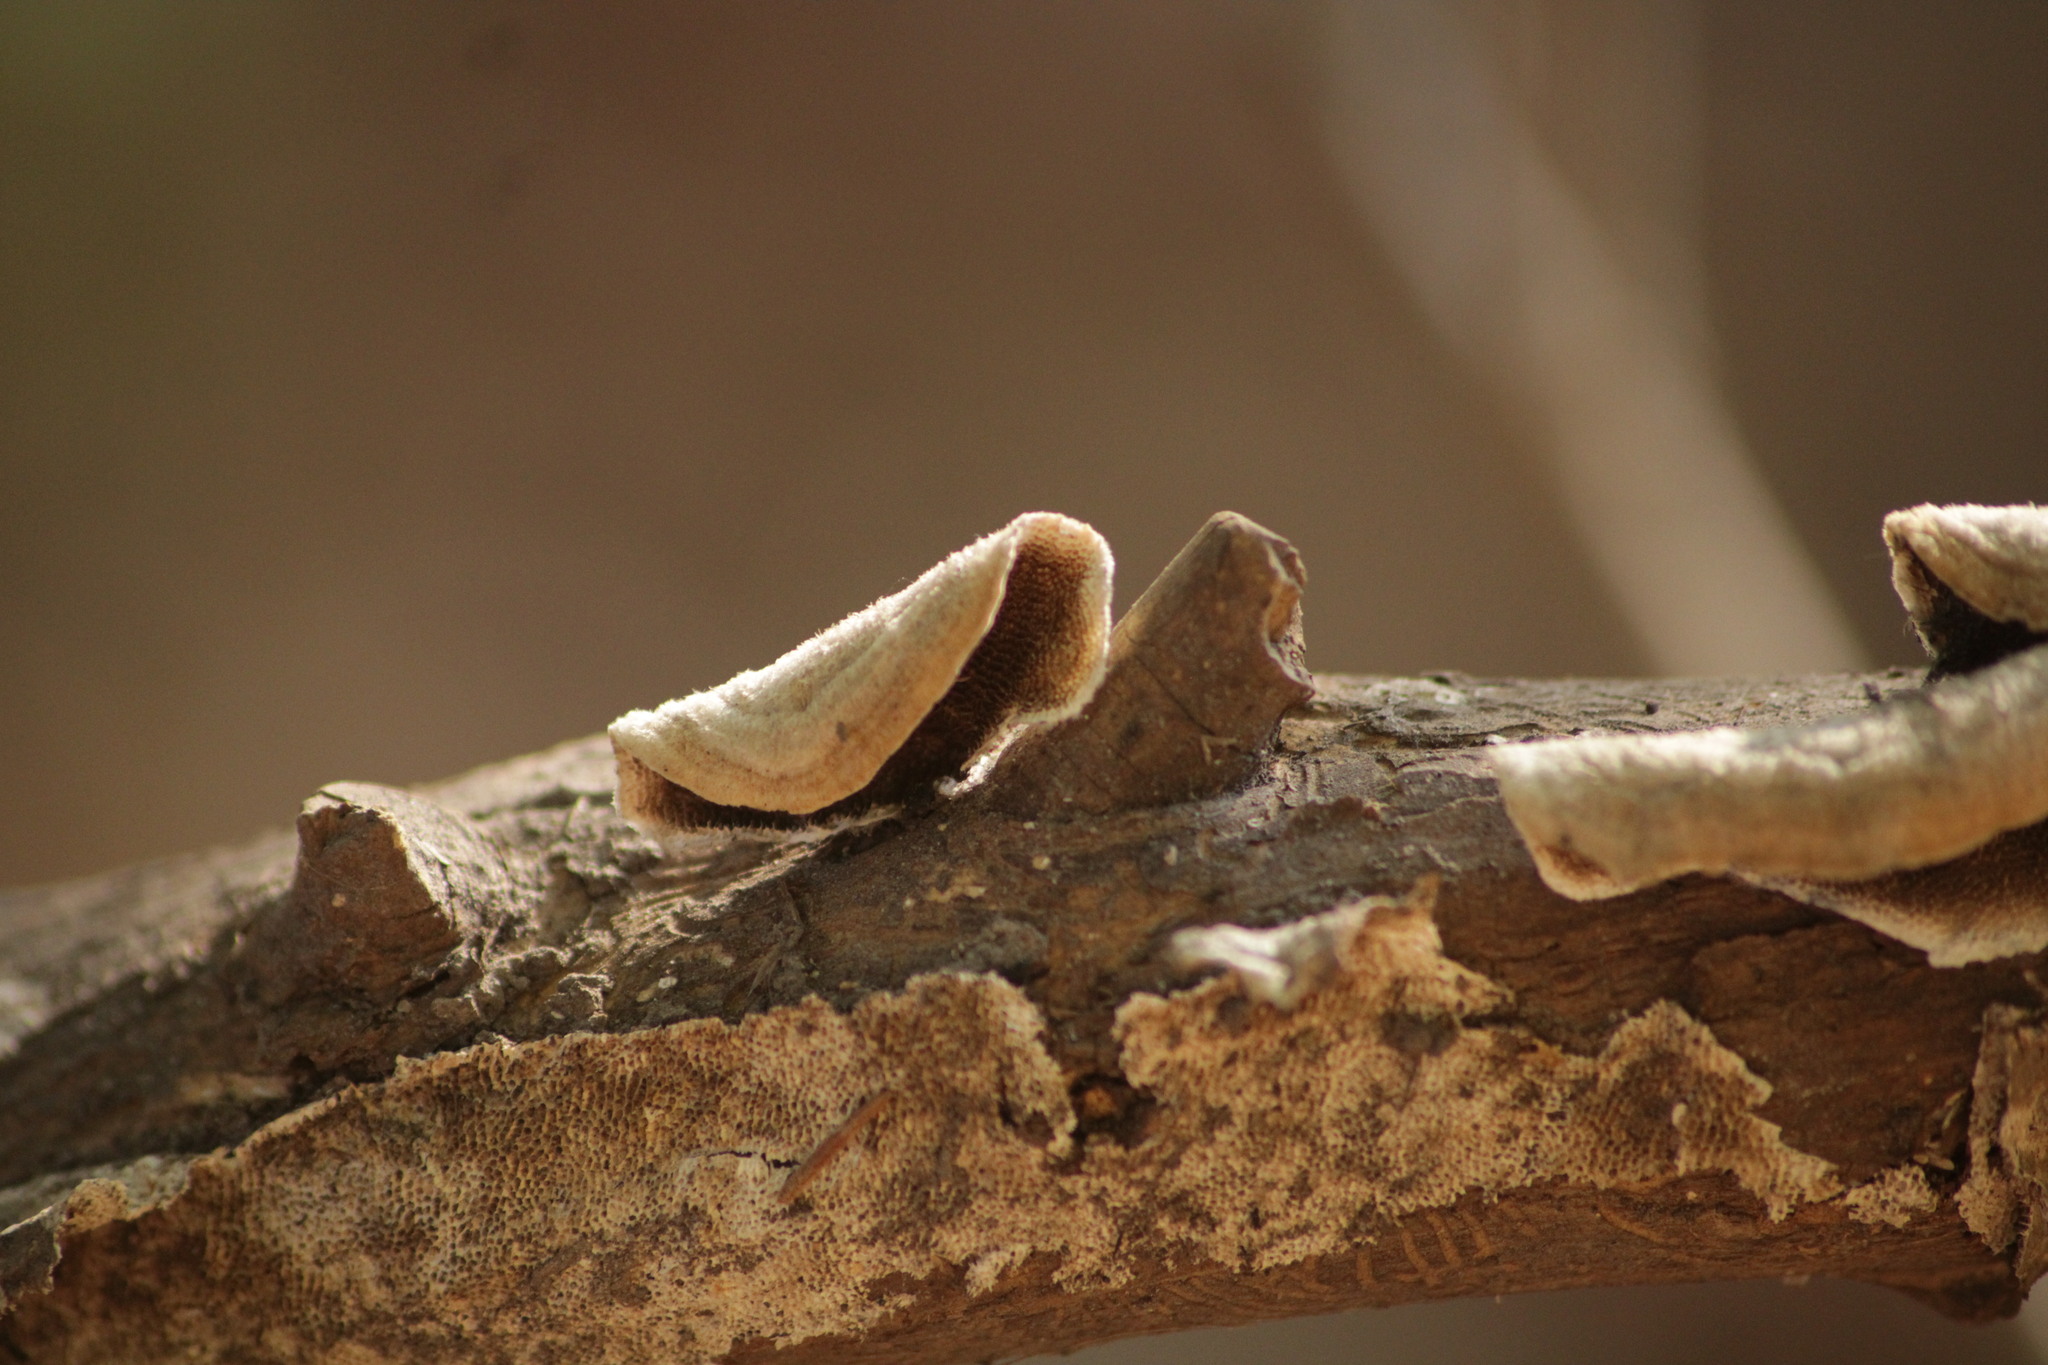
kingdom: Fungi
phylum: Basidiomycota
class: Agaricomycetes
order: Polyporales
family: Polyporaceae
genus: Trametes
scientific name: Trametes villosa
